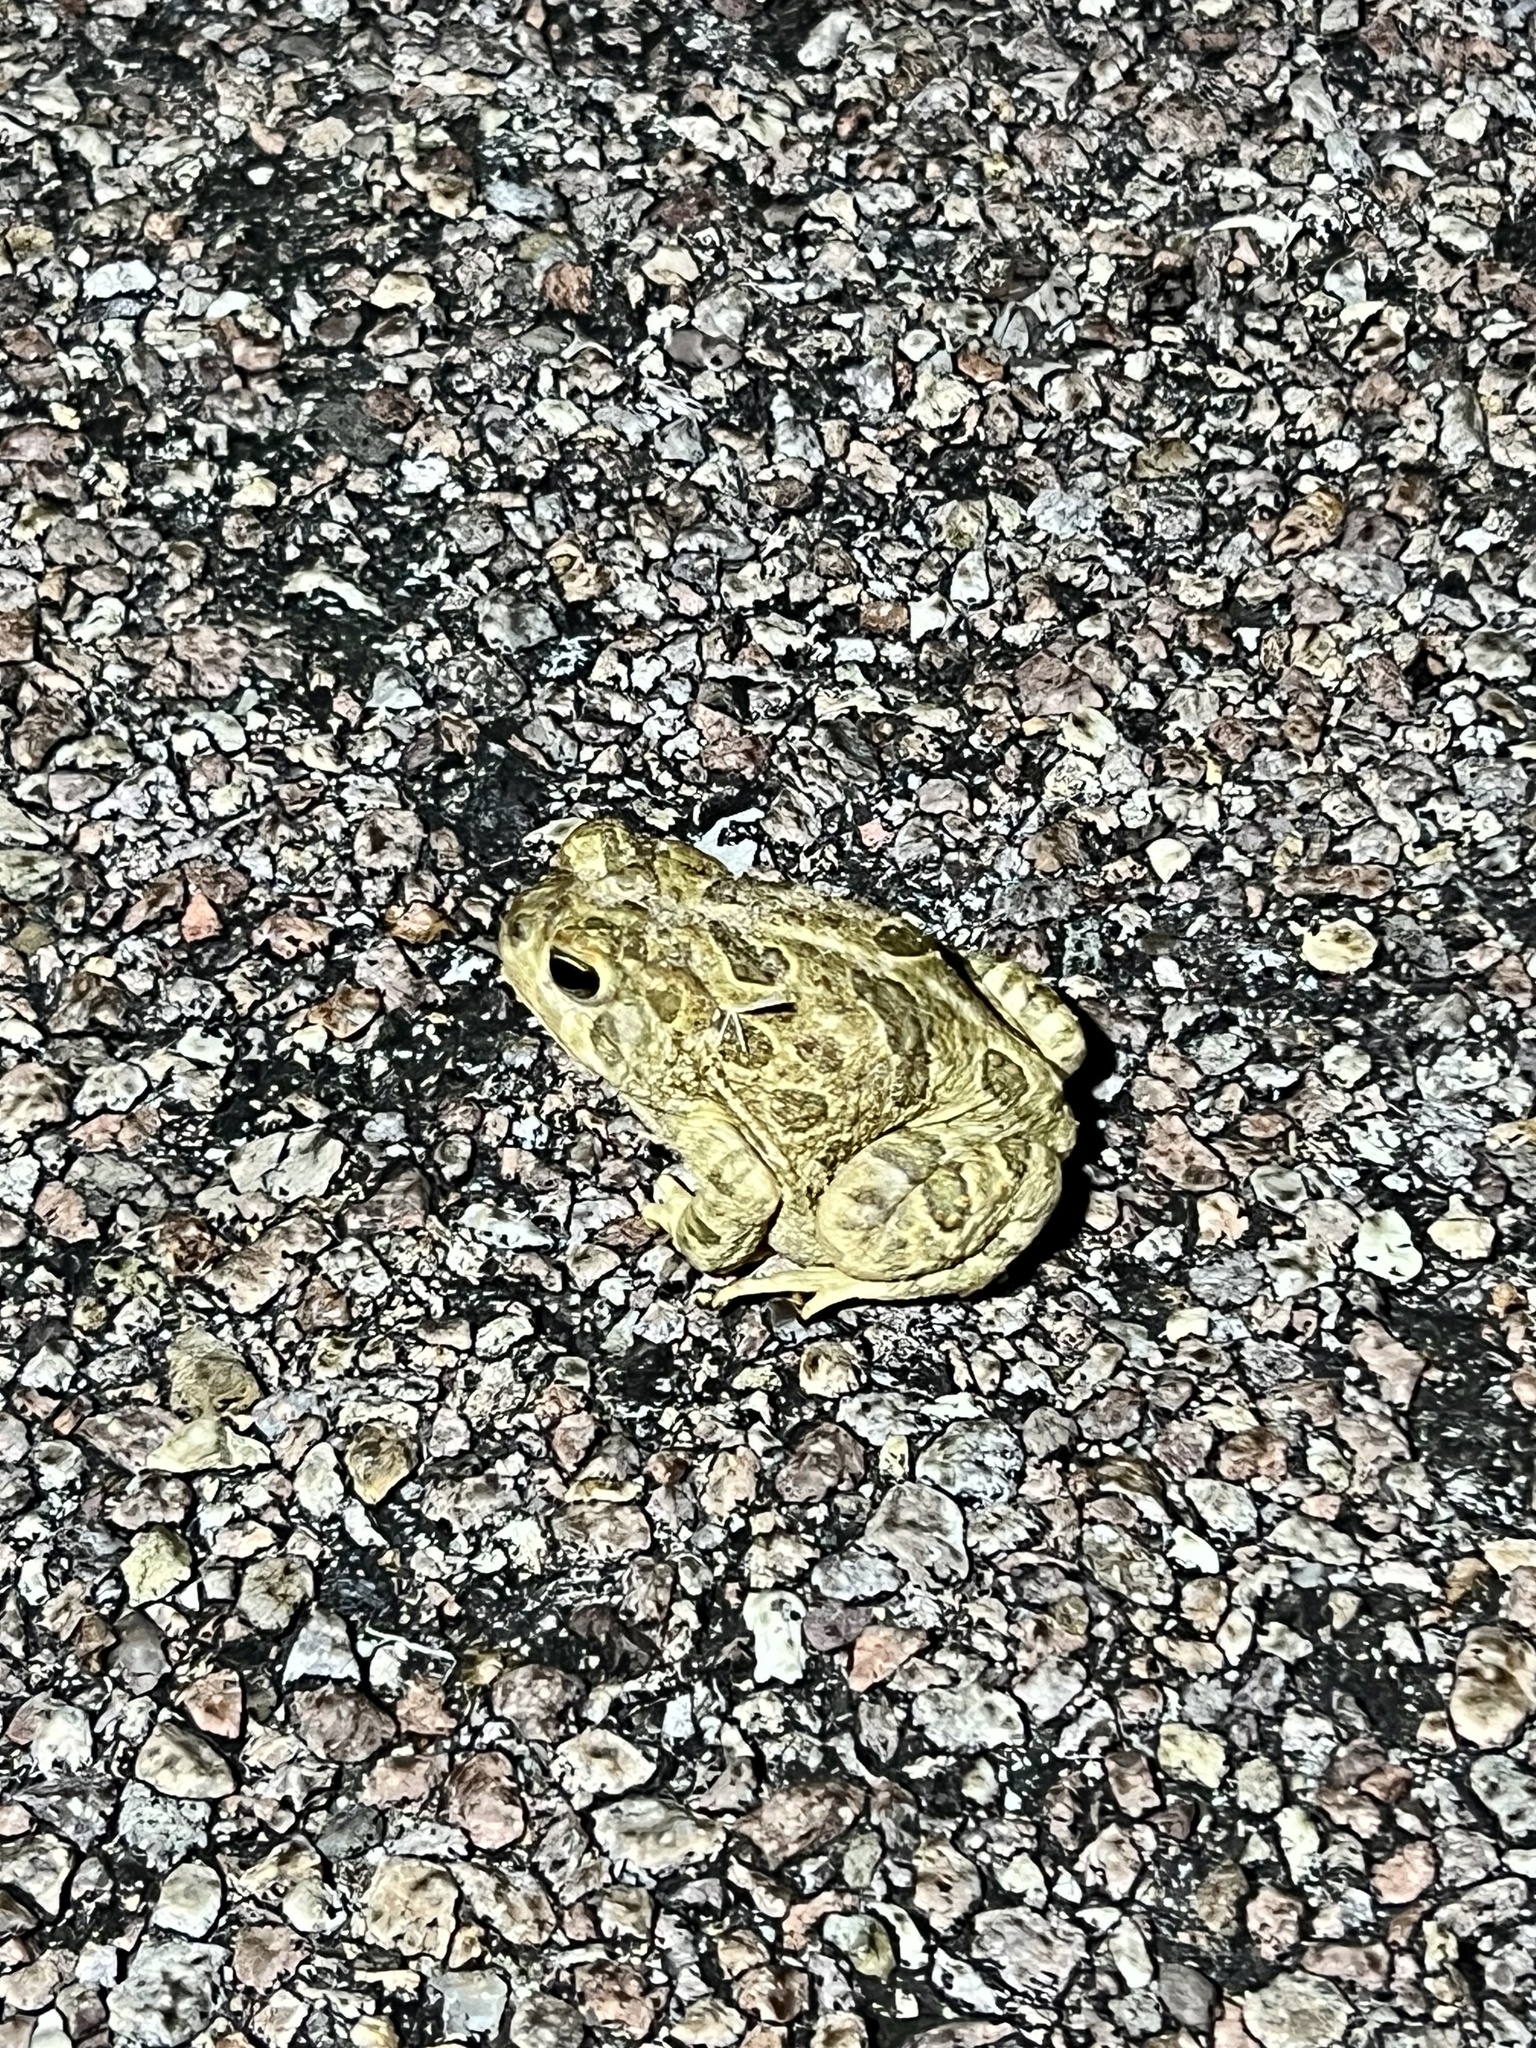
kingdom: Animalia
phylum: Chordata
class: Amphibia
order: Anura
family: Bufonidae
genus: Anaxyrus
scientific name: Anaxyrus cognatus
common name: Great plains toad
